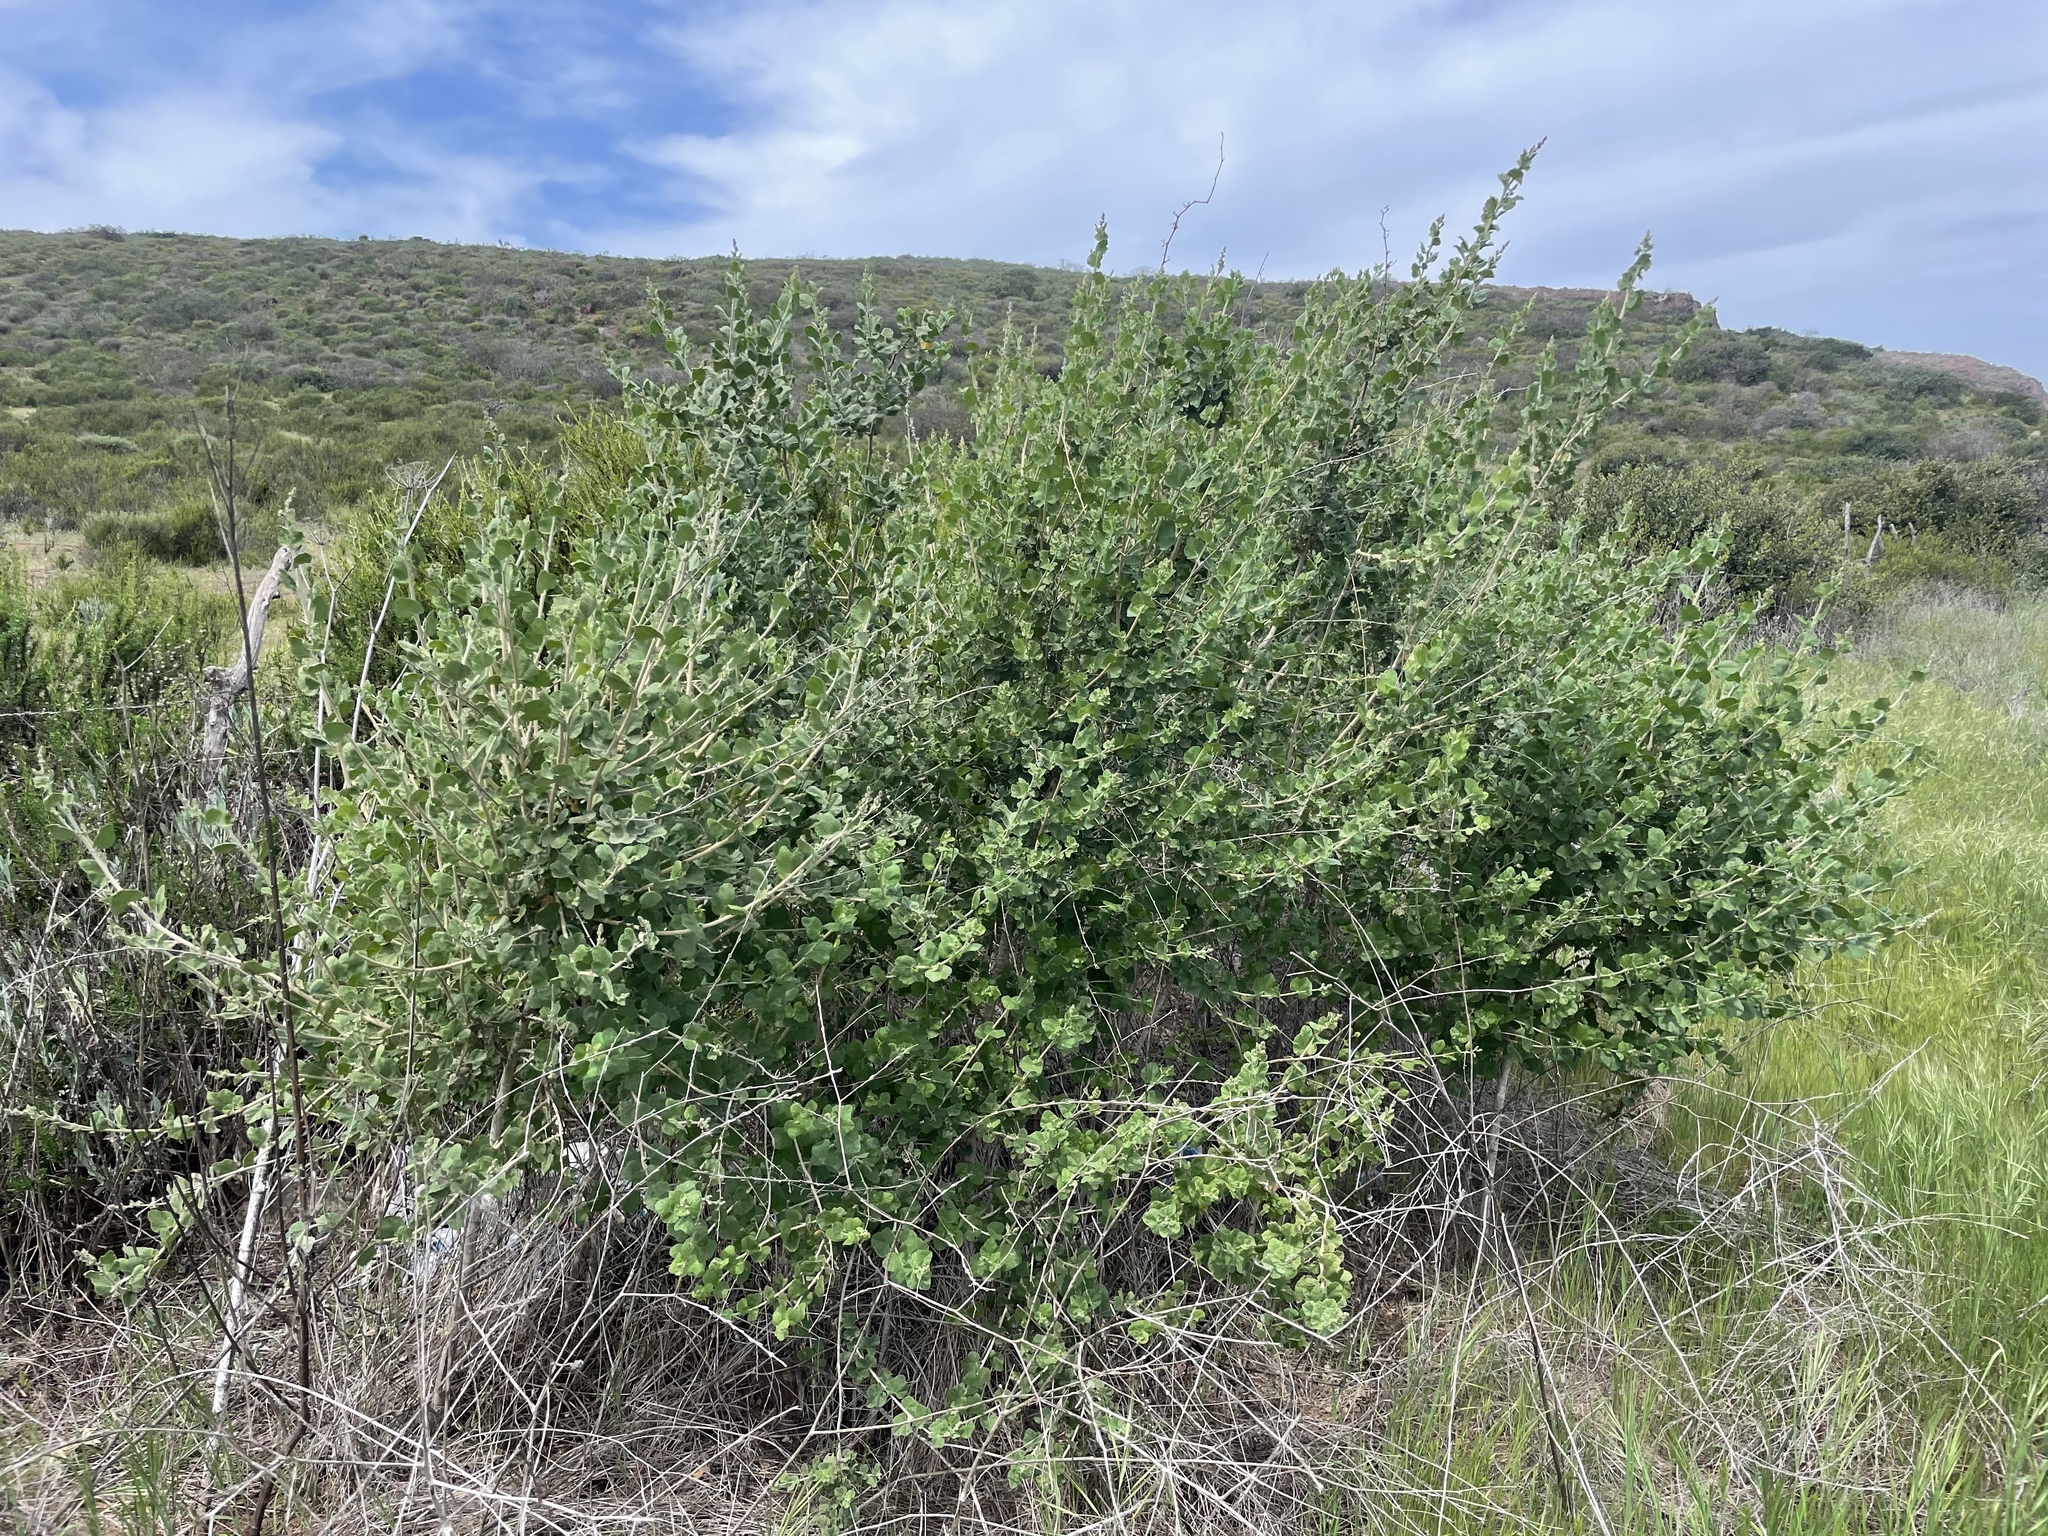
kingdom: Plantae
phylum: Tracheophyta
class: Magnoliopsida
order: Malvales
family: Malvaceae
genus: Malacothamnus
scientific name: Malacothamnus fasciculatus
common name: Sant cruz island bush-mallow
